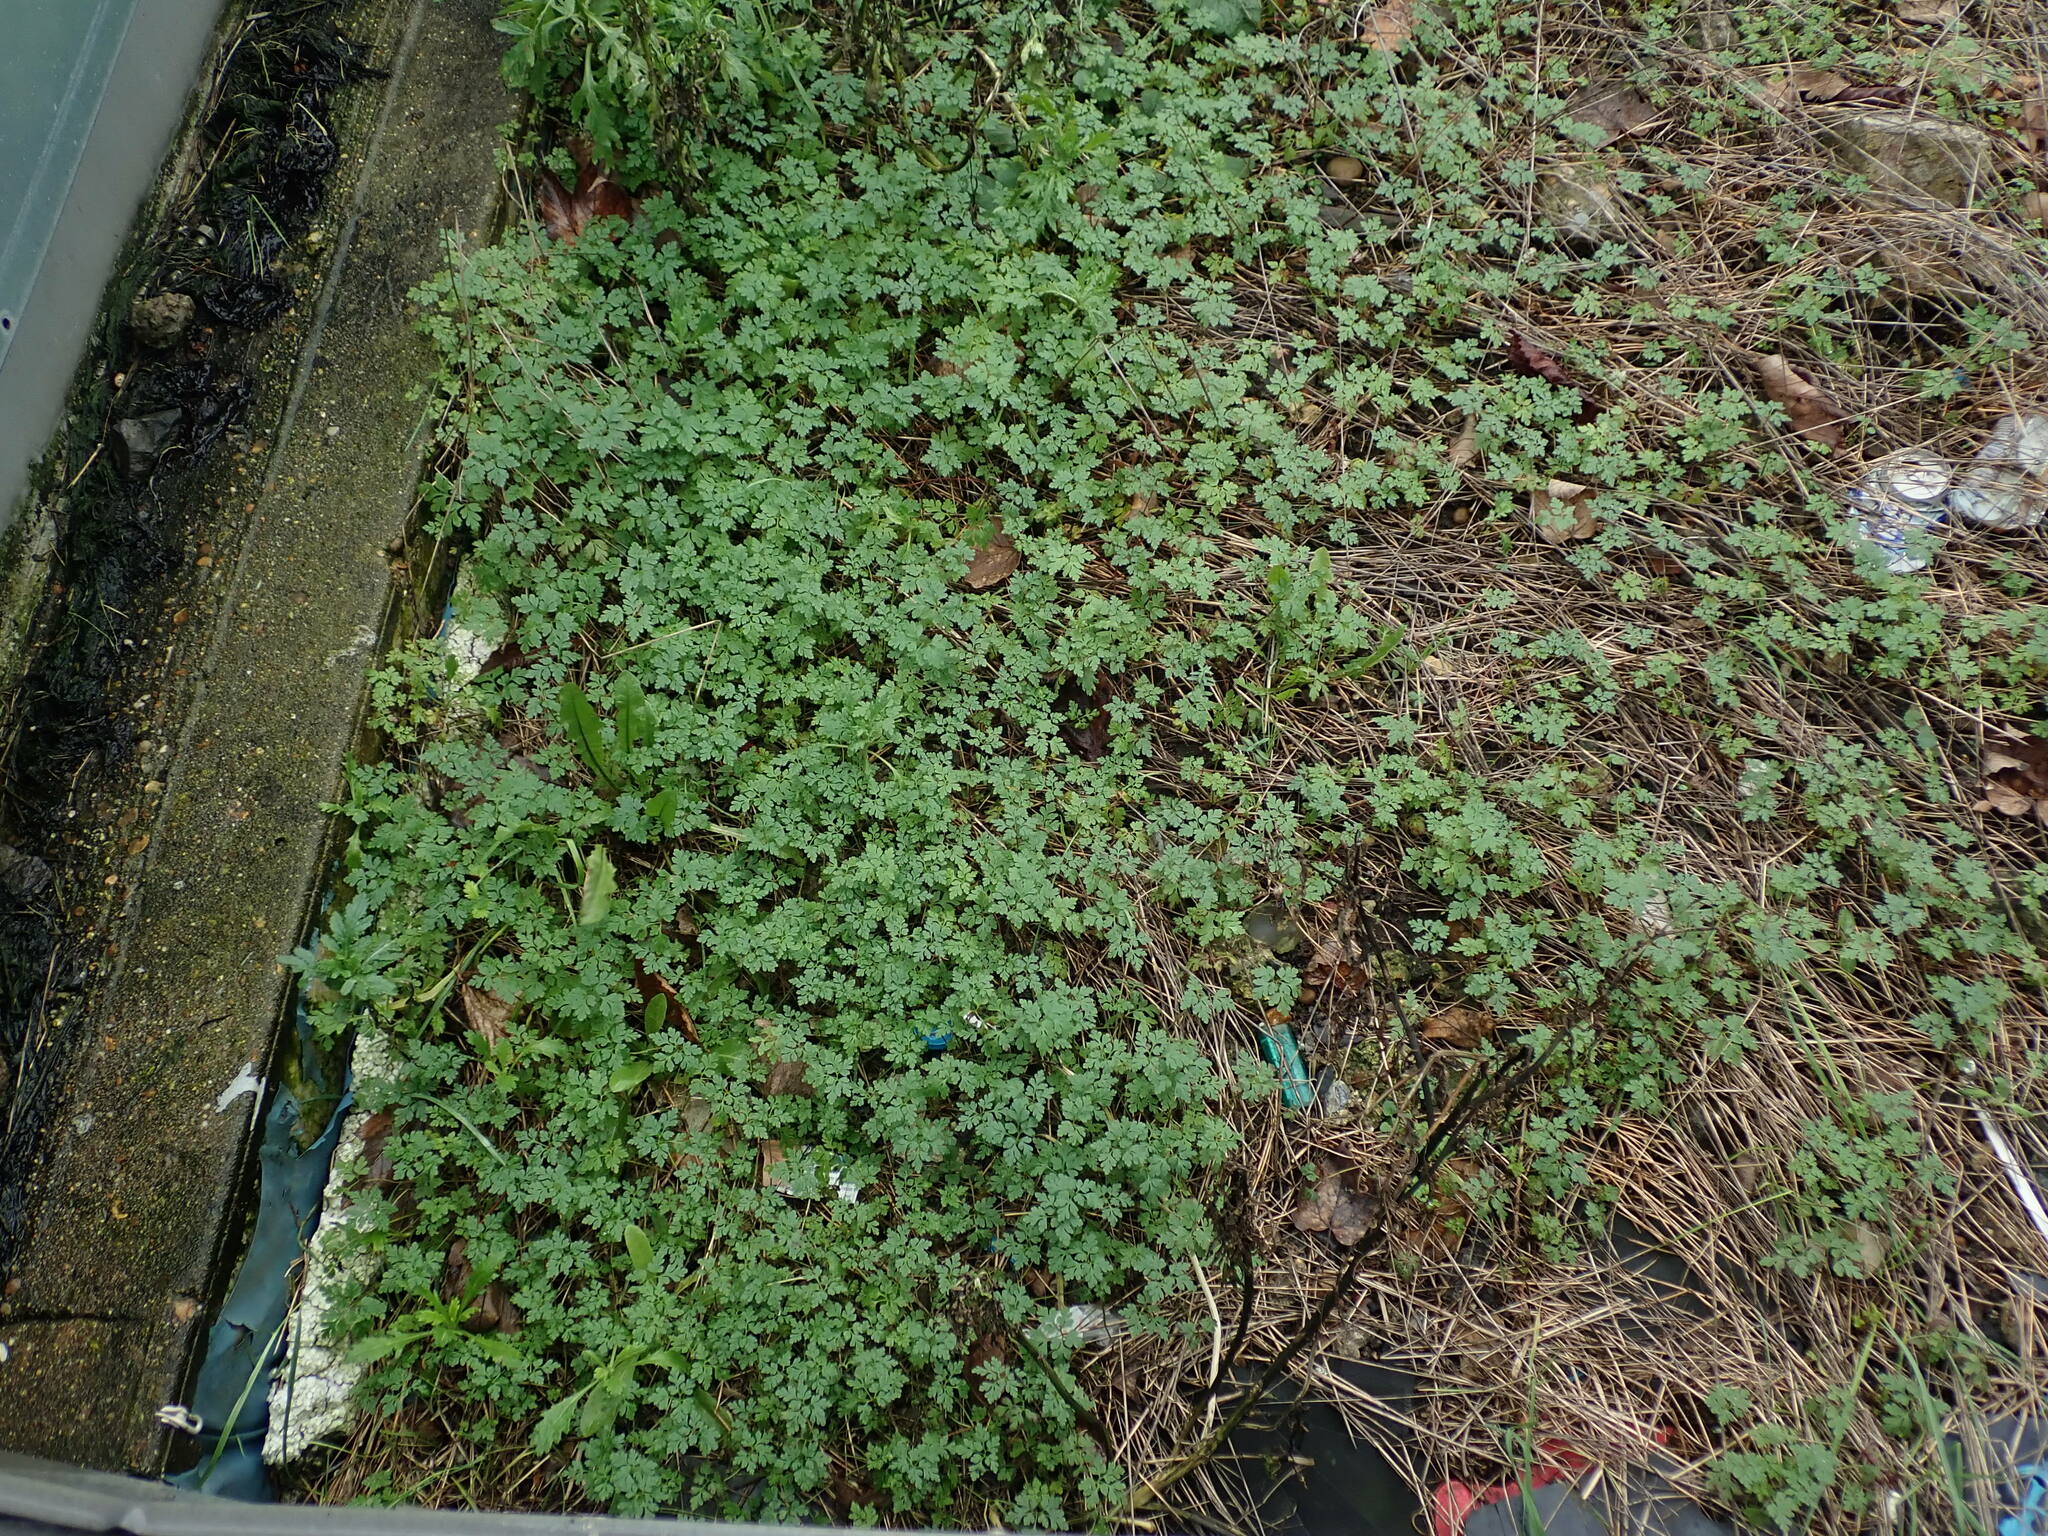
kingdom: Plantae
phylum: Tracheophyta
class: Magnoliopsida
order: Geraniales
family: Geraniaceae
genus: Geranium
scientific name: Geranium robertianum
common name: Herb-robert
